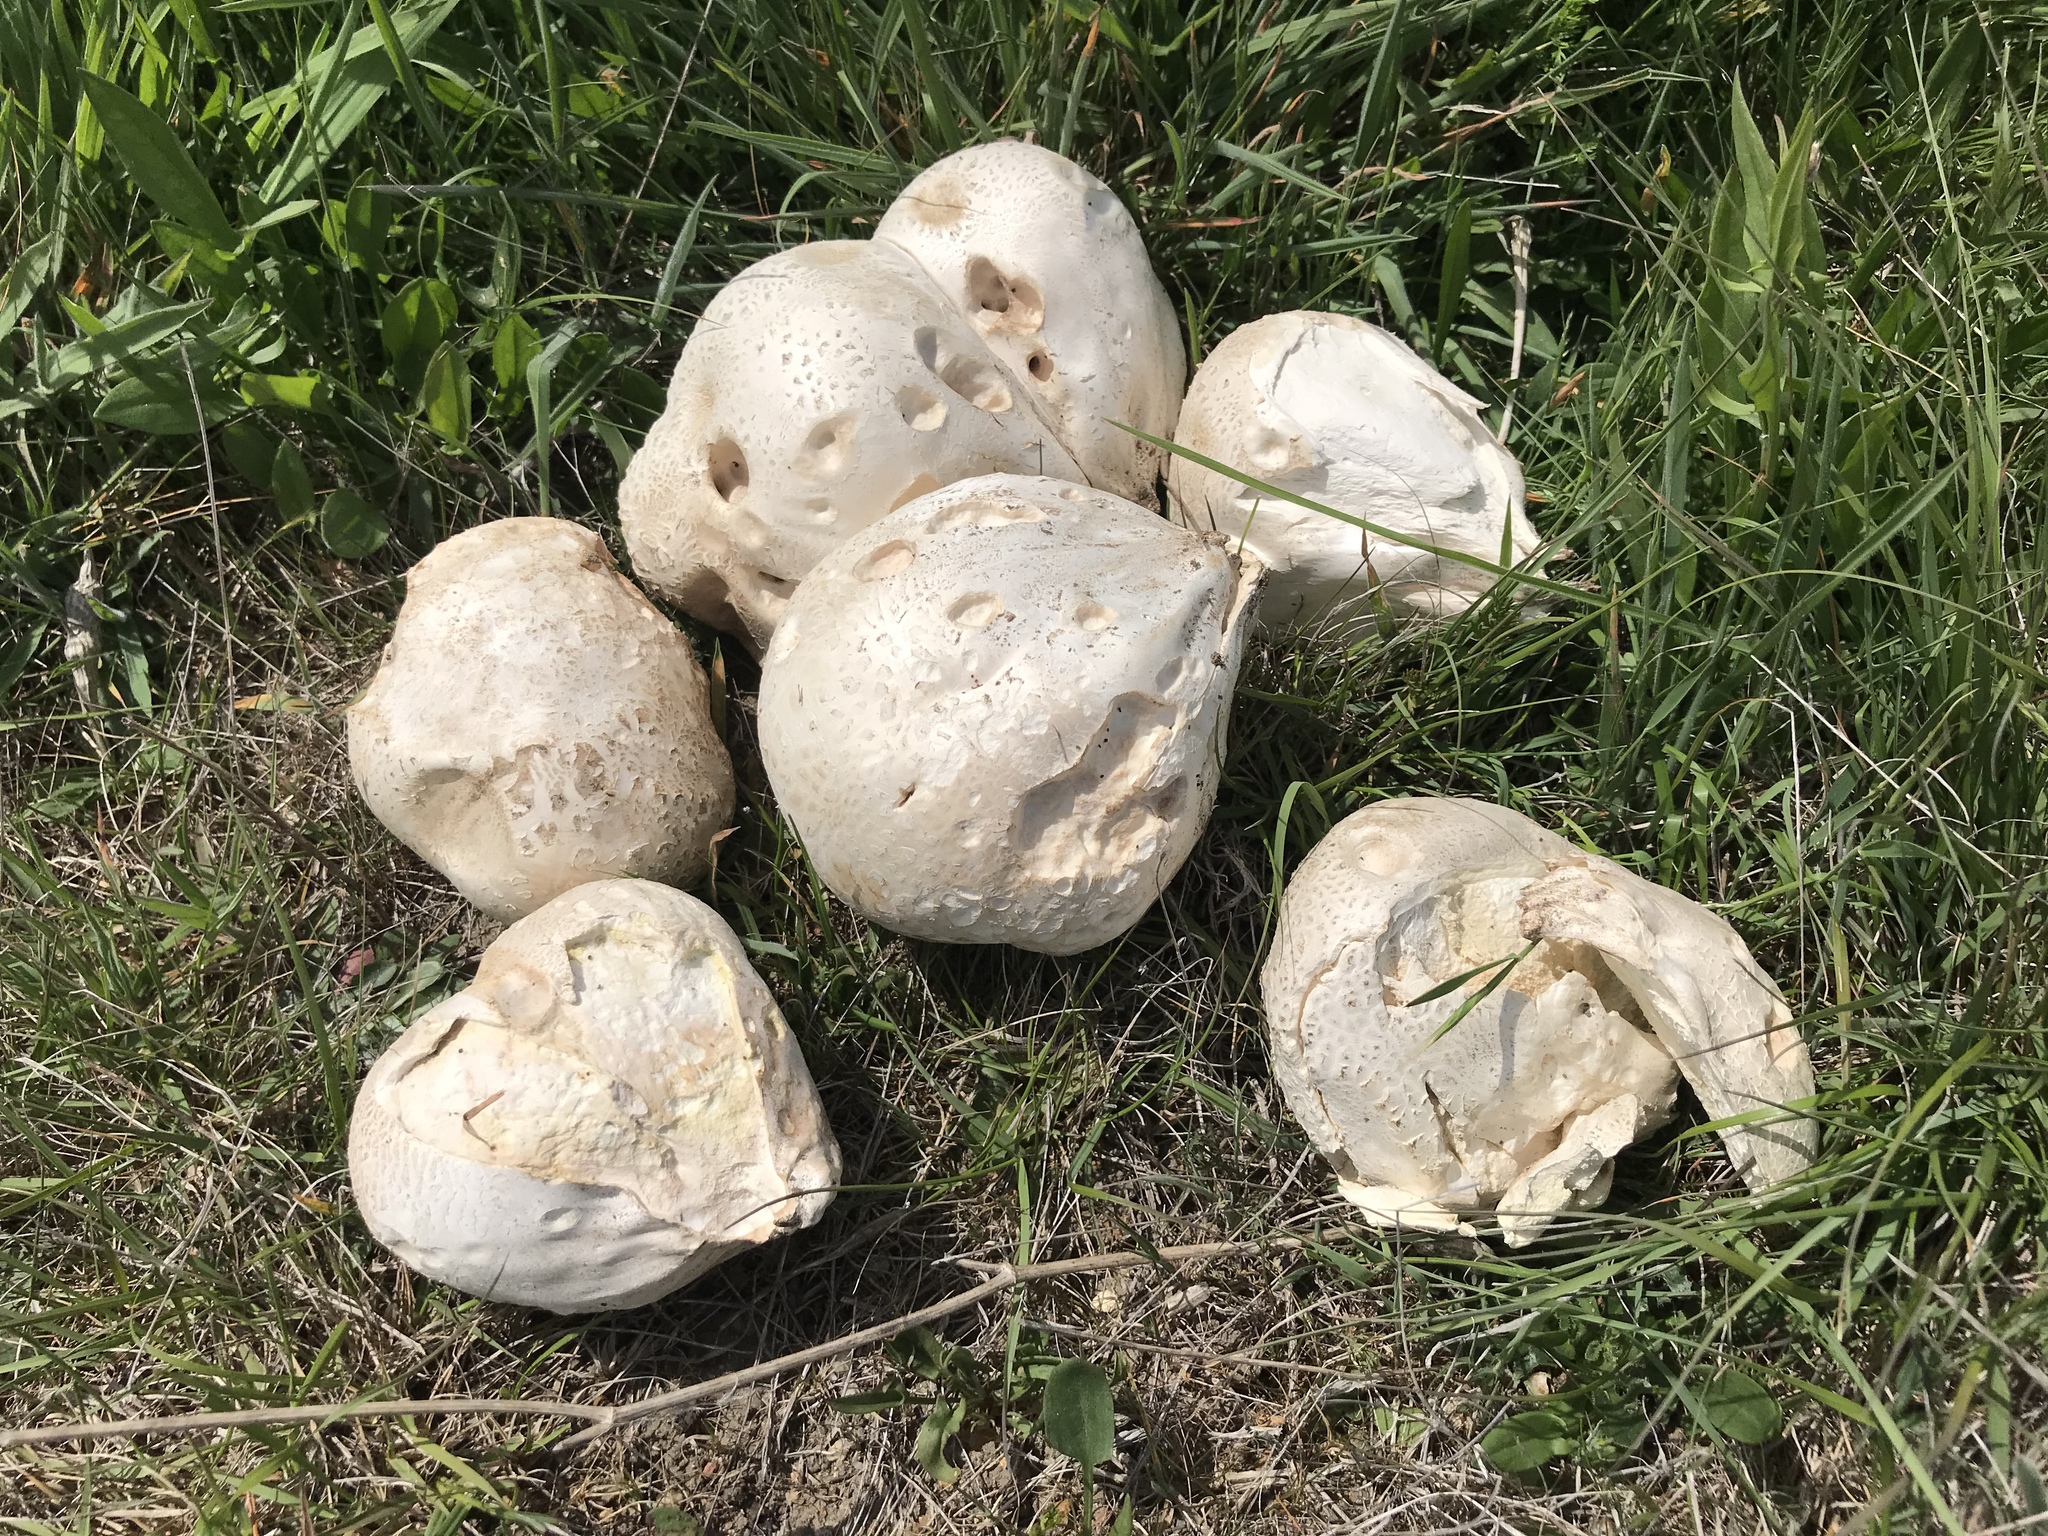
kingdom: Fungi
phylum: Basidiomycota
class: Agaricomycetes
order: Agaricales
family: Lycoperdaceae
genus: Calvatia
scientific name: Calvatia booniana
